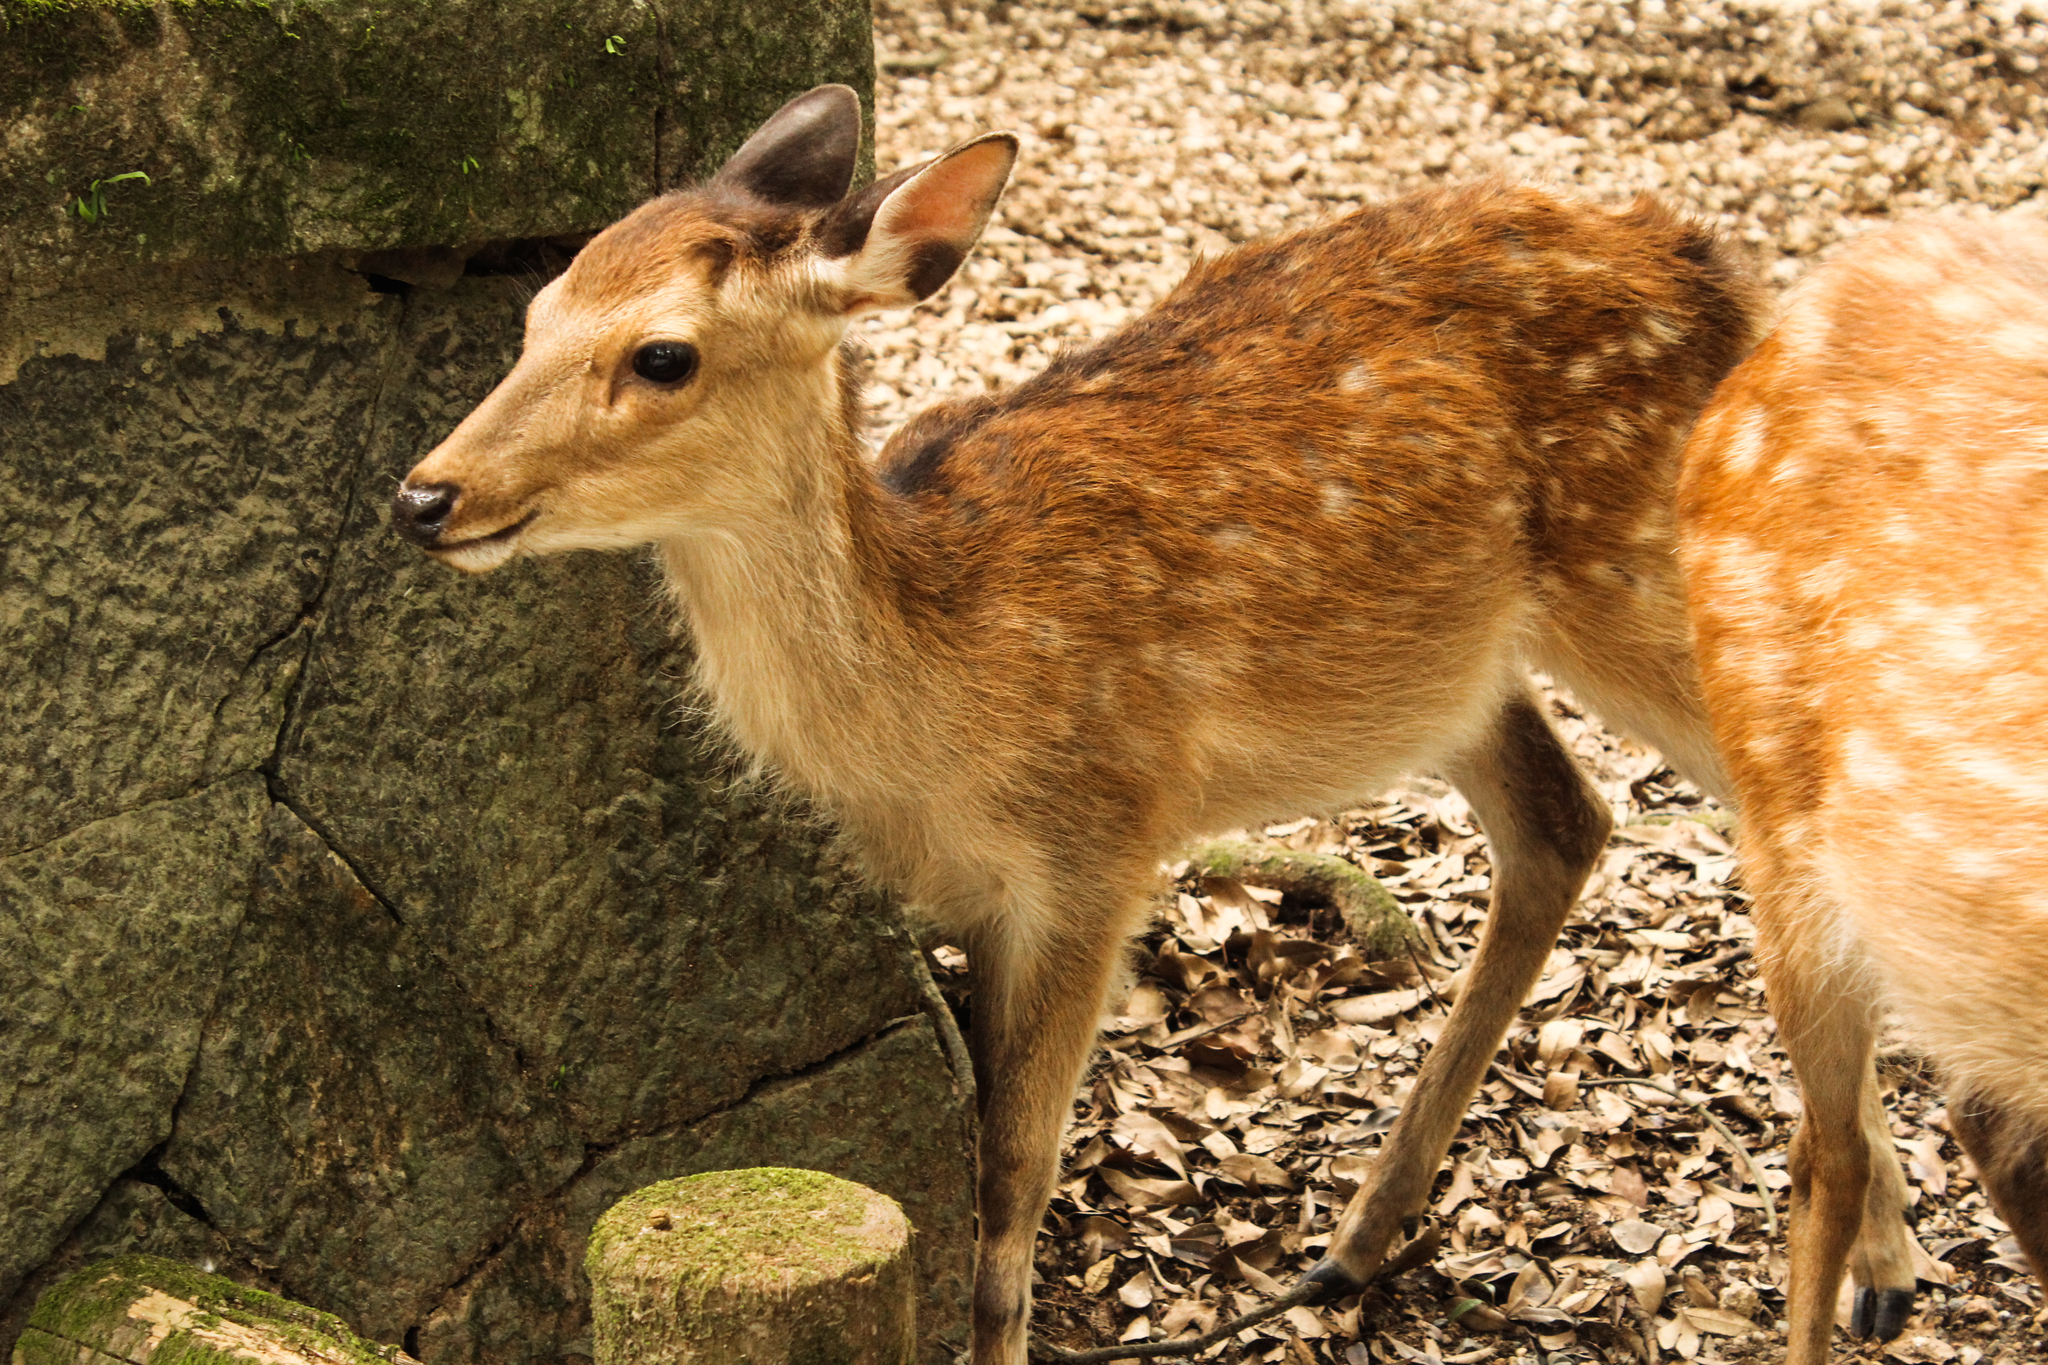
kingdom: Animalia
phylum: Chordata
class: Mammalia
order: Artiodactyla
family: Cervidae
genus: Cervus
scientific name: Cervus nippon
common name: Sika deer
